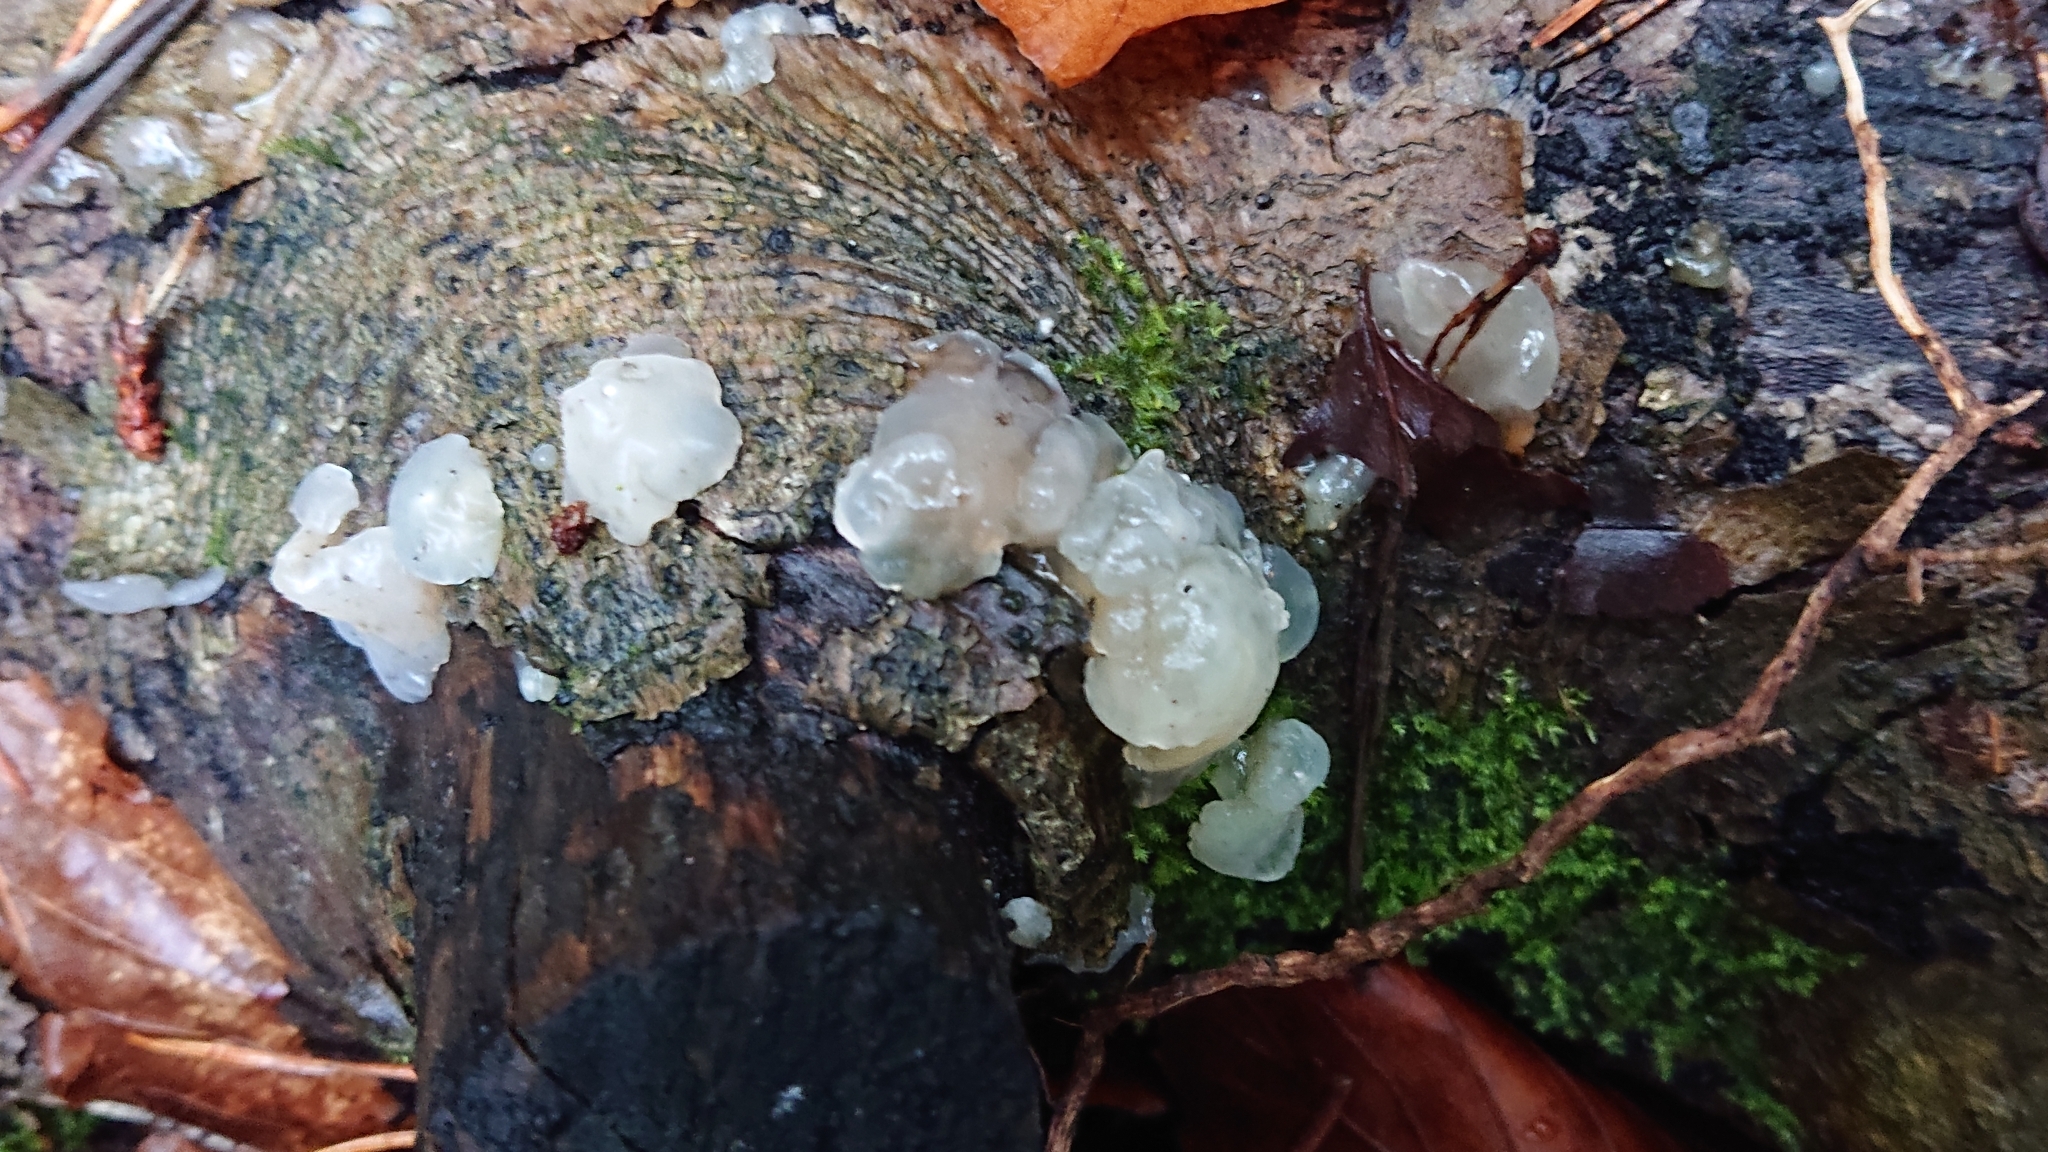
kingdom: Fungi
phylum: Basidiomycota
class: Agaricomycetes
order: Auriculariales
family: Hyaloriaceae
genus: Myxarium
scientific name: Myxarium nucleatum
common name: Crystal brain fungus
